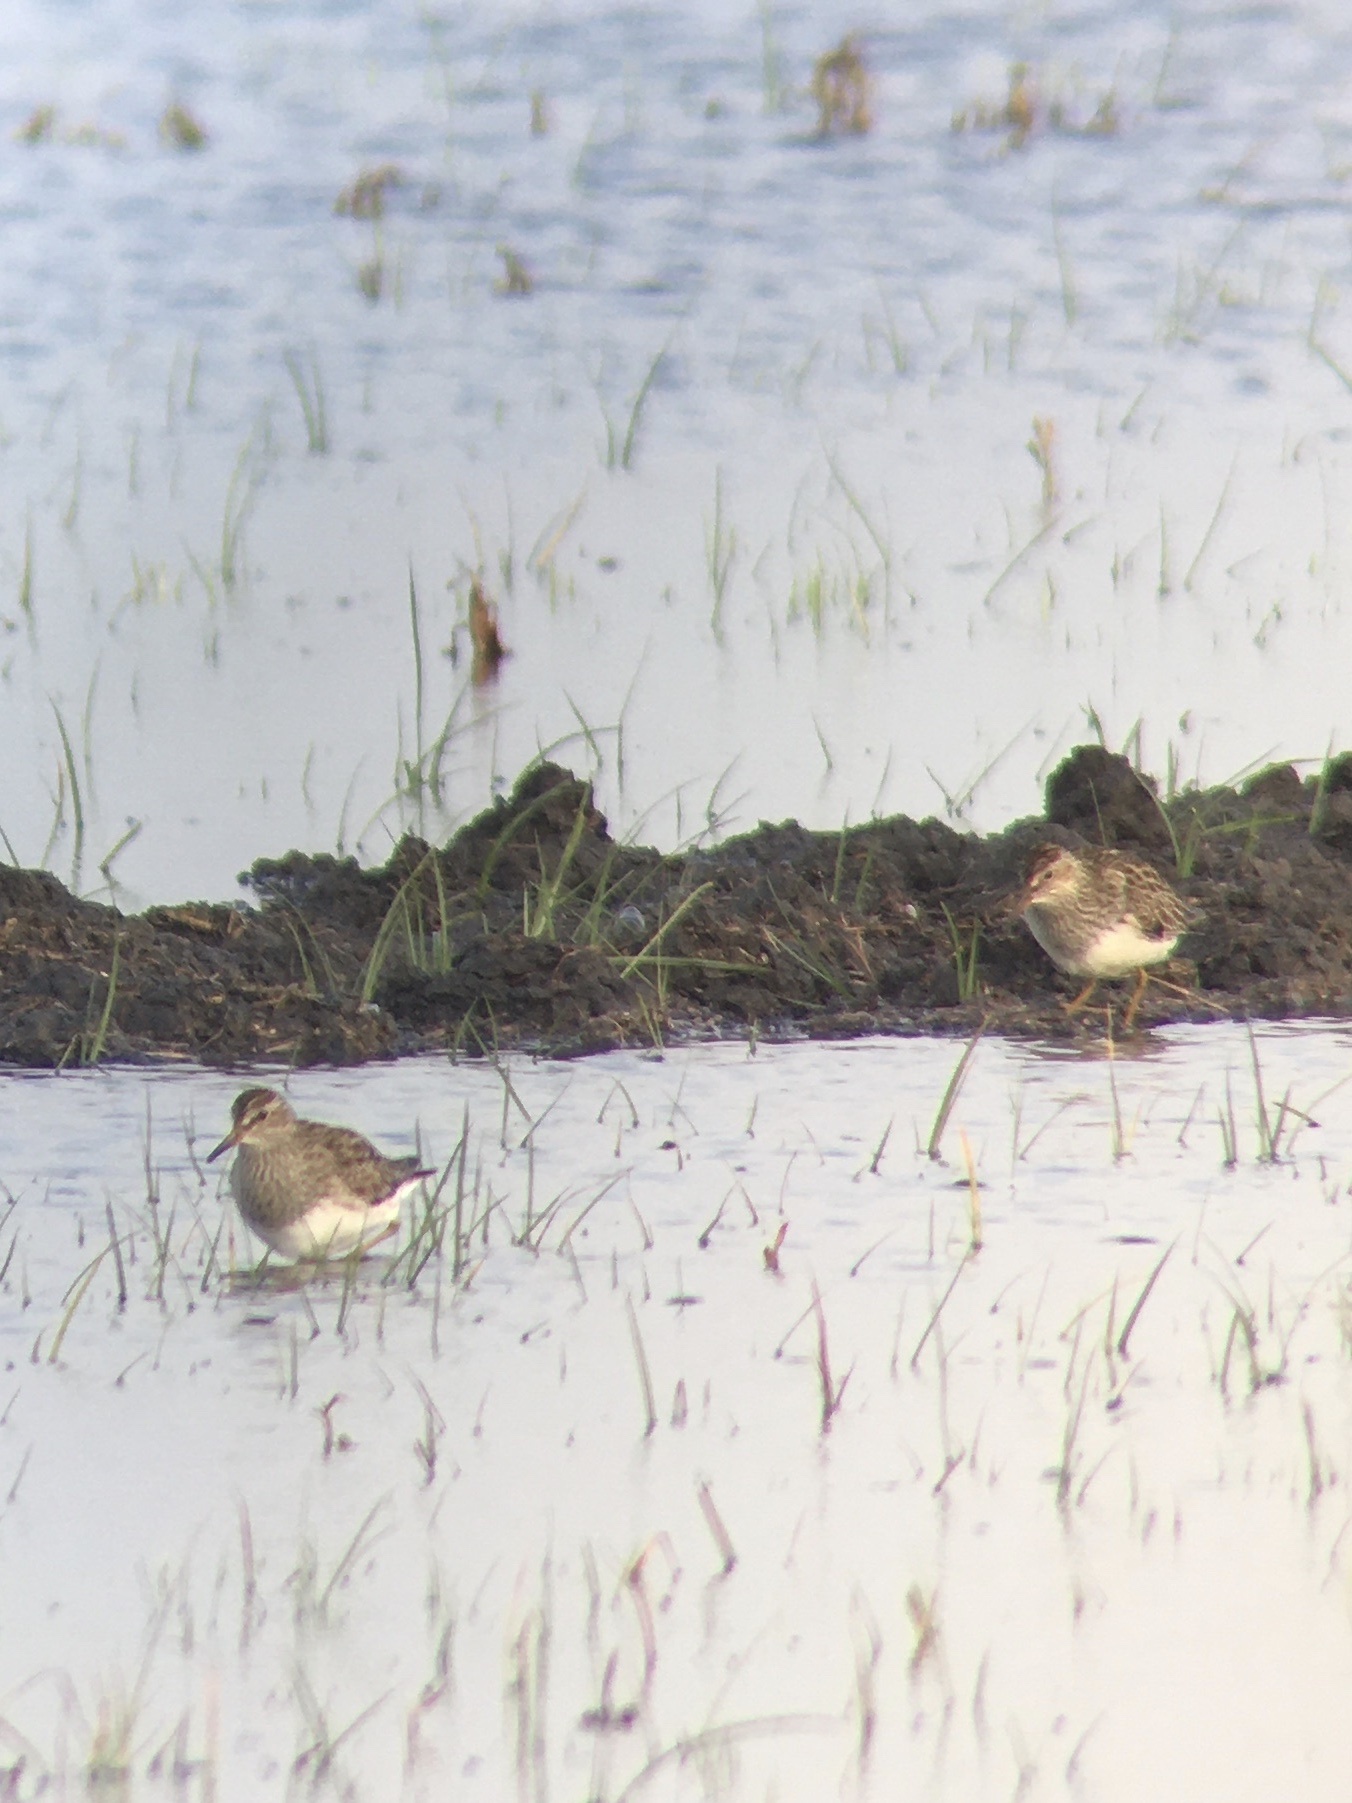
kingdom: Animalia
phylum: Chordata
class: Aves
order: Charadriiformes
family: Scolopacidae
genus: Calidris
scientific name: Calidris melanotos
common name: Pectoral sandpiper
